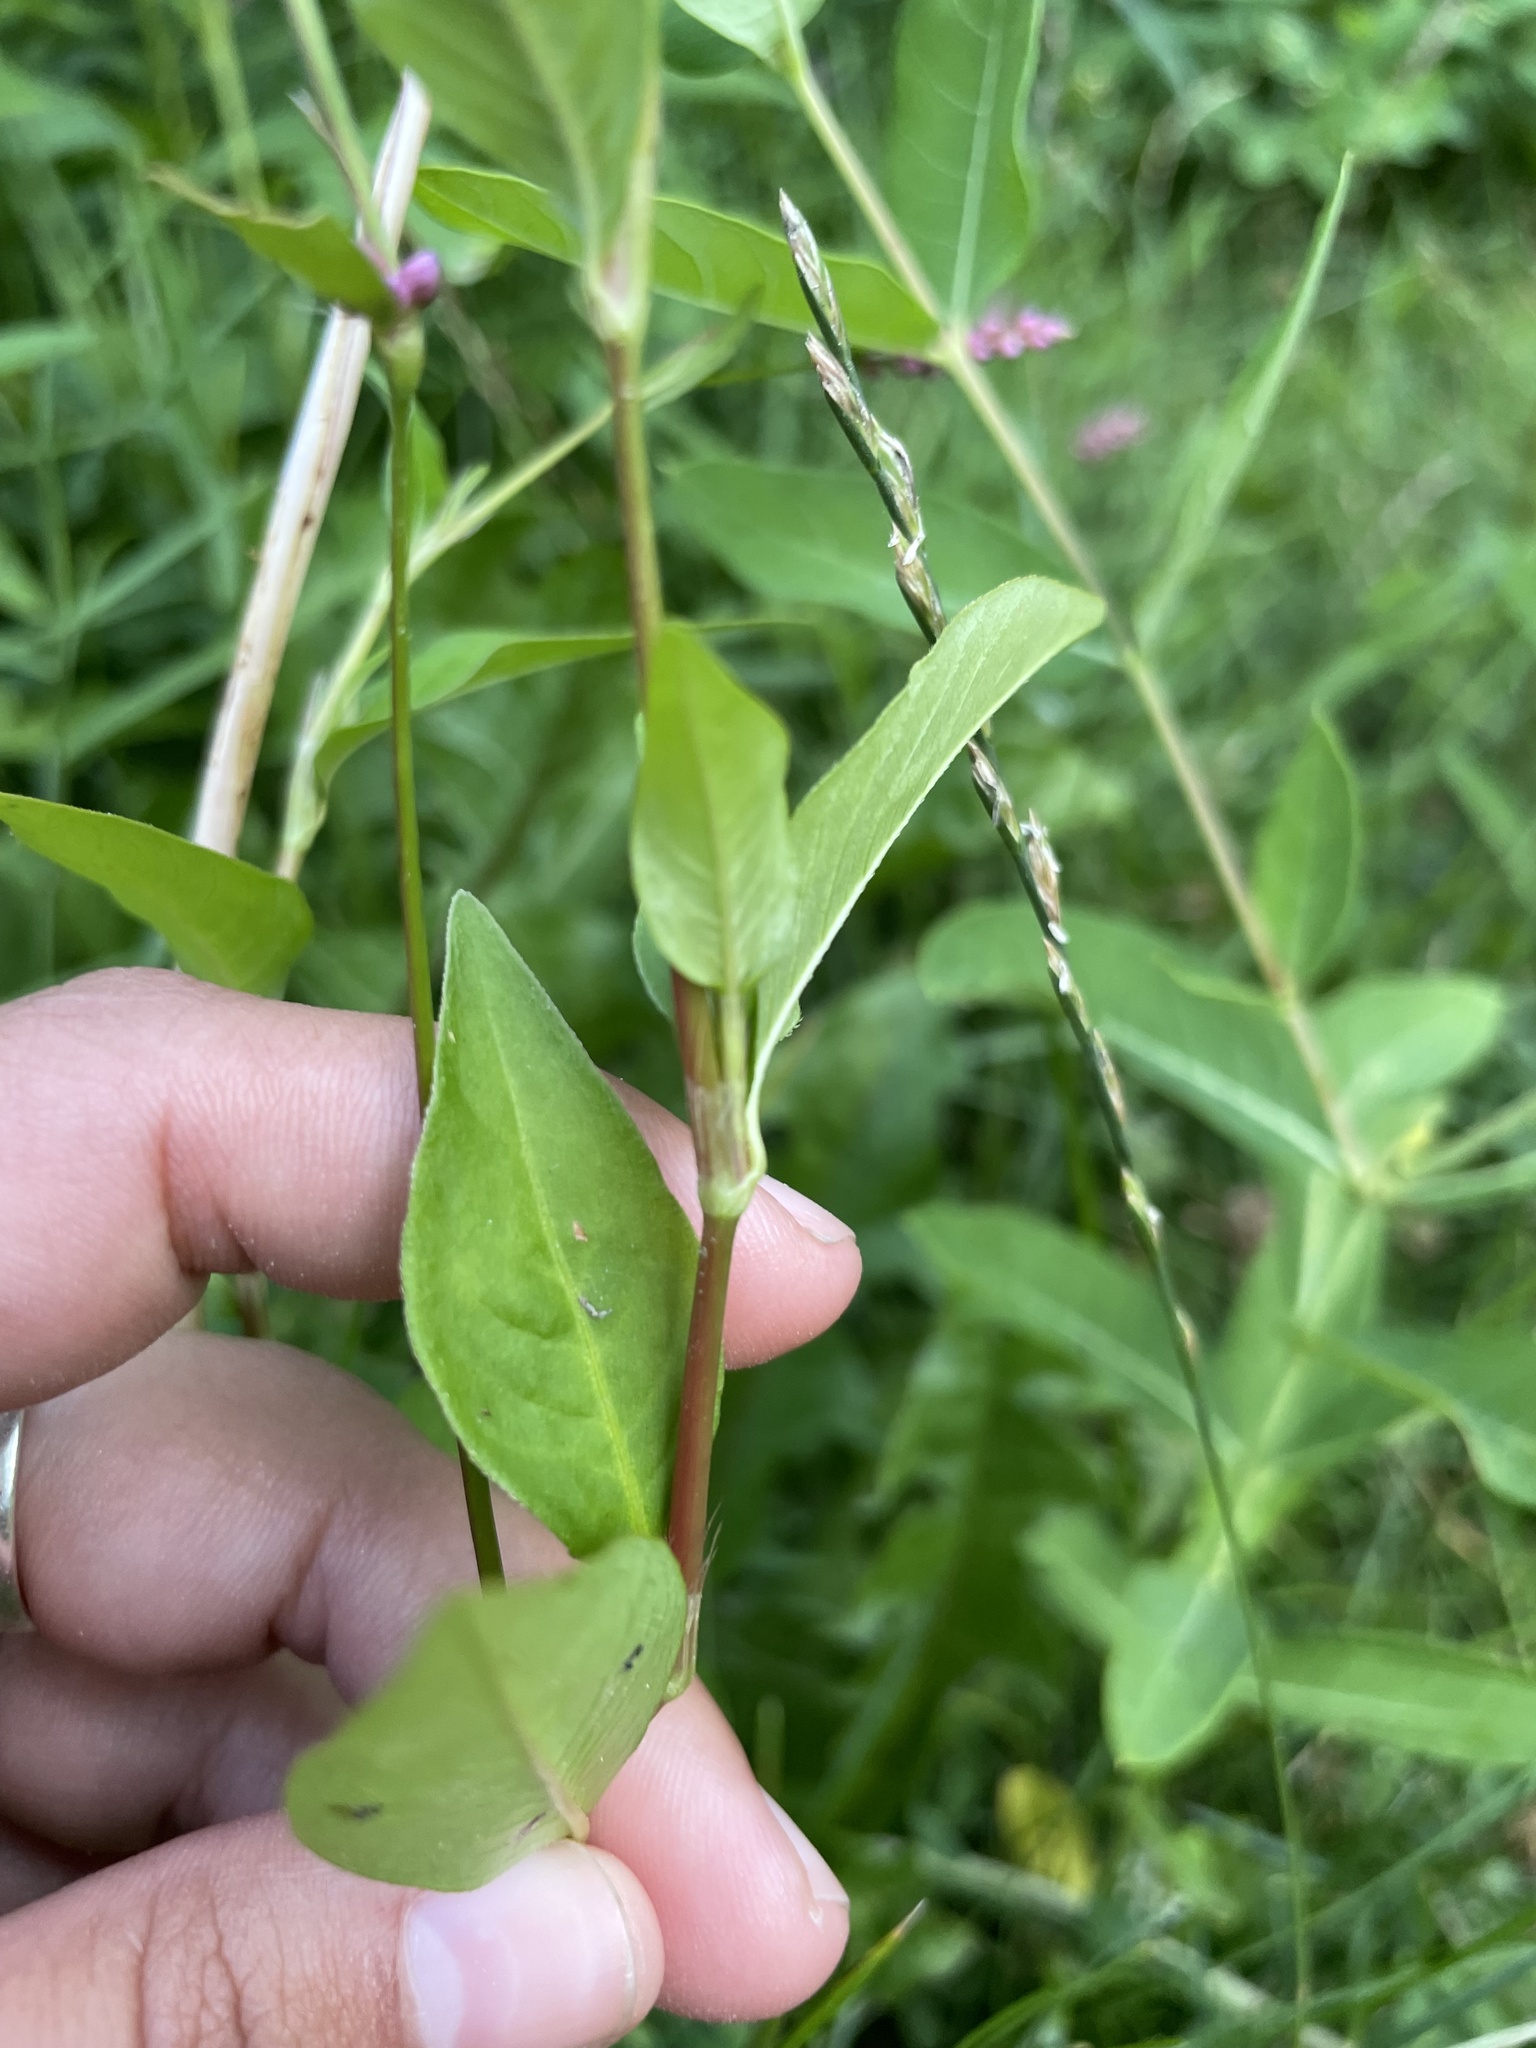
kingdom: Plantae
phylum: Tracheophyta
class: Magnoliopsida
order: Caryophyllales
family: Polygonaceae
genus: Persicaria
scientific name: Persicaria longiseta
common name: Bristly lady's-thumb
